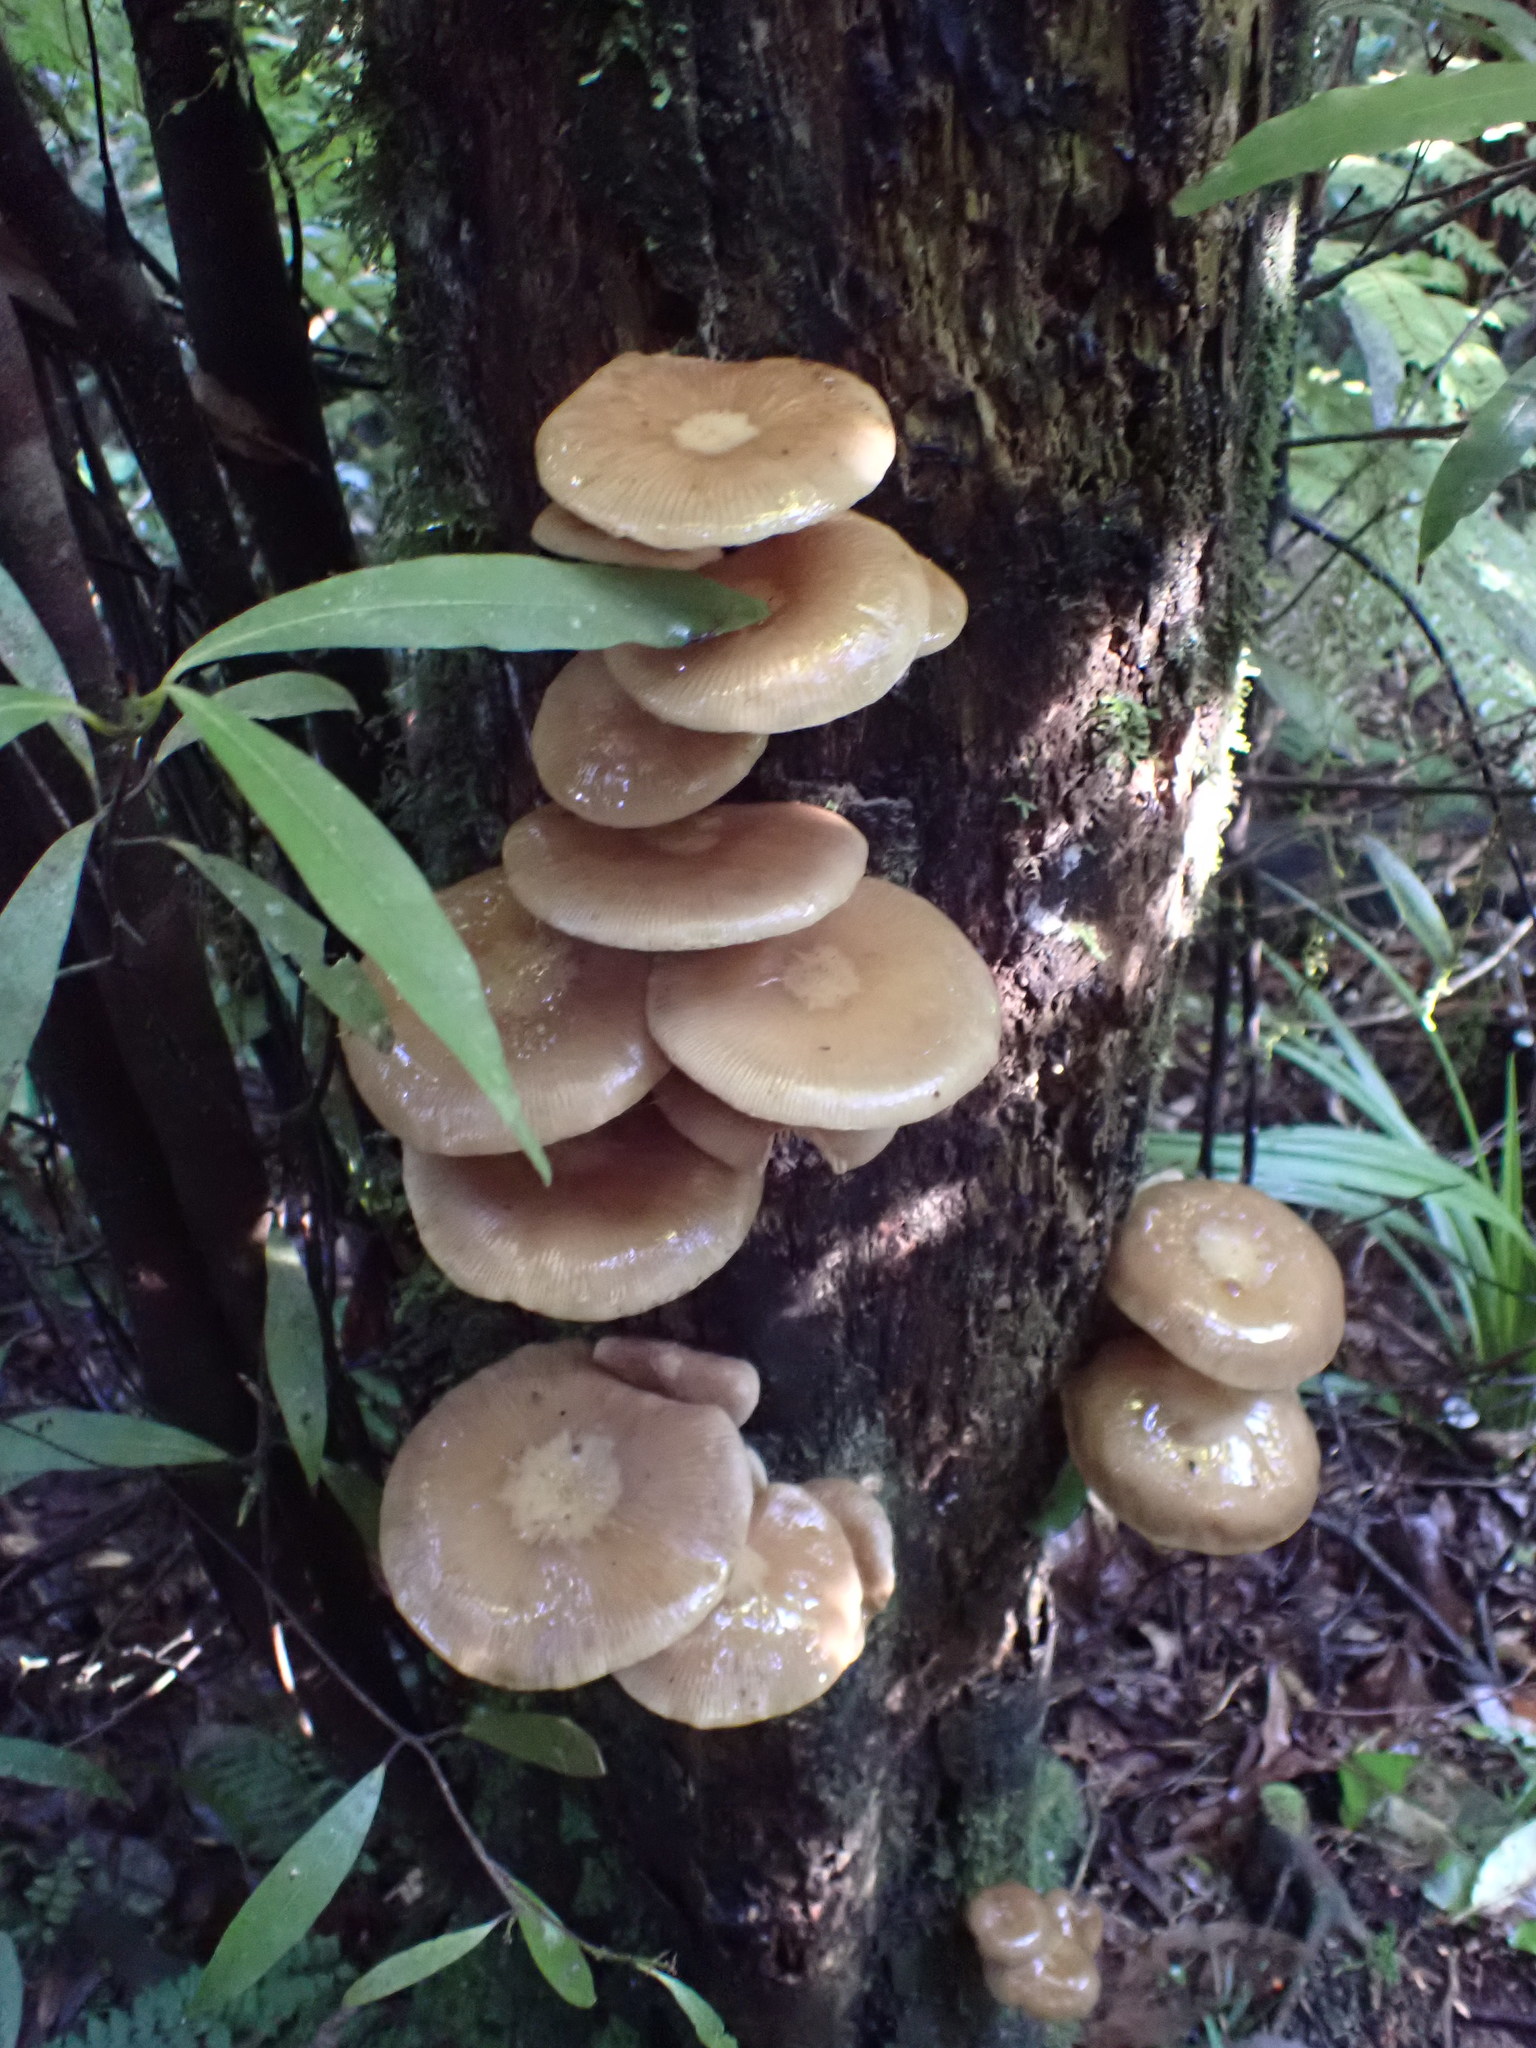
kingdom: Fungi
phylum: Basidiomycota
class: Agaricomycetes
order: Agaricales
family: Physalacriaceae
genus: Armillaria
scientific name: Armillaria novae-zelandiae
